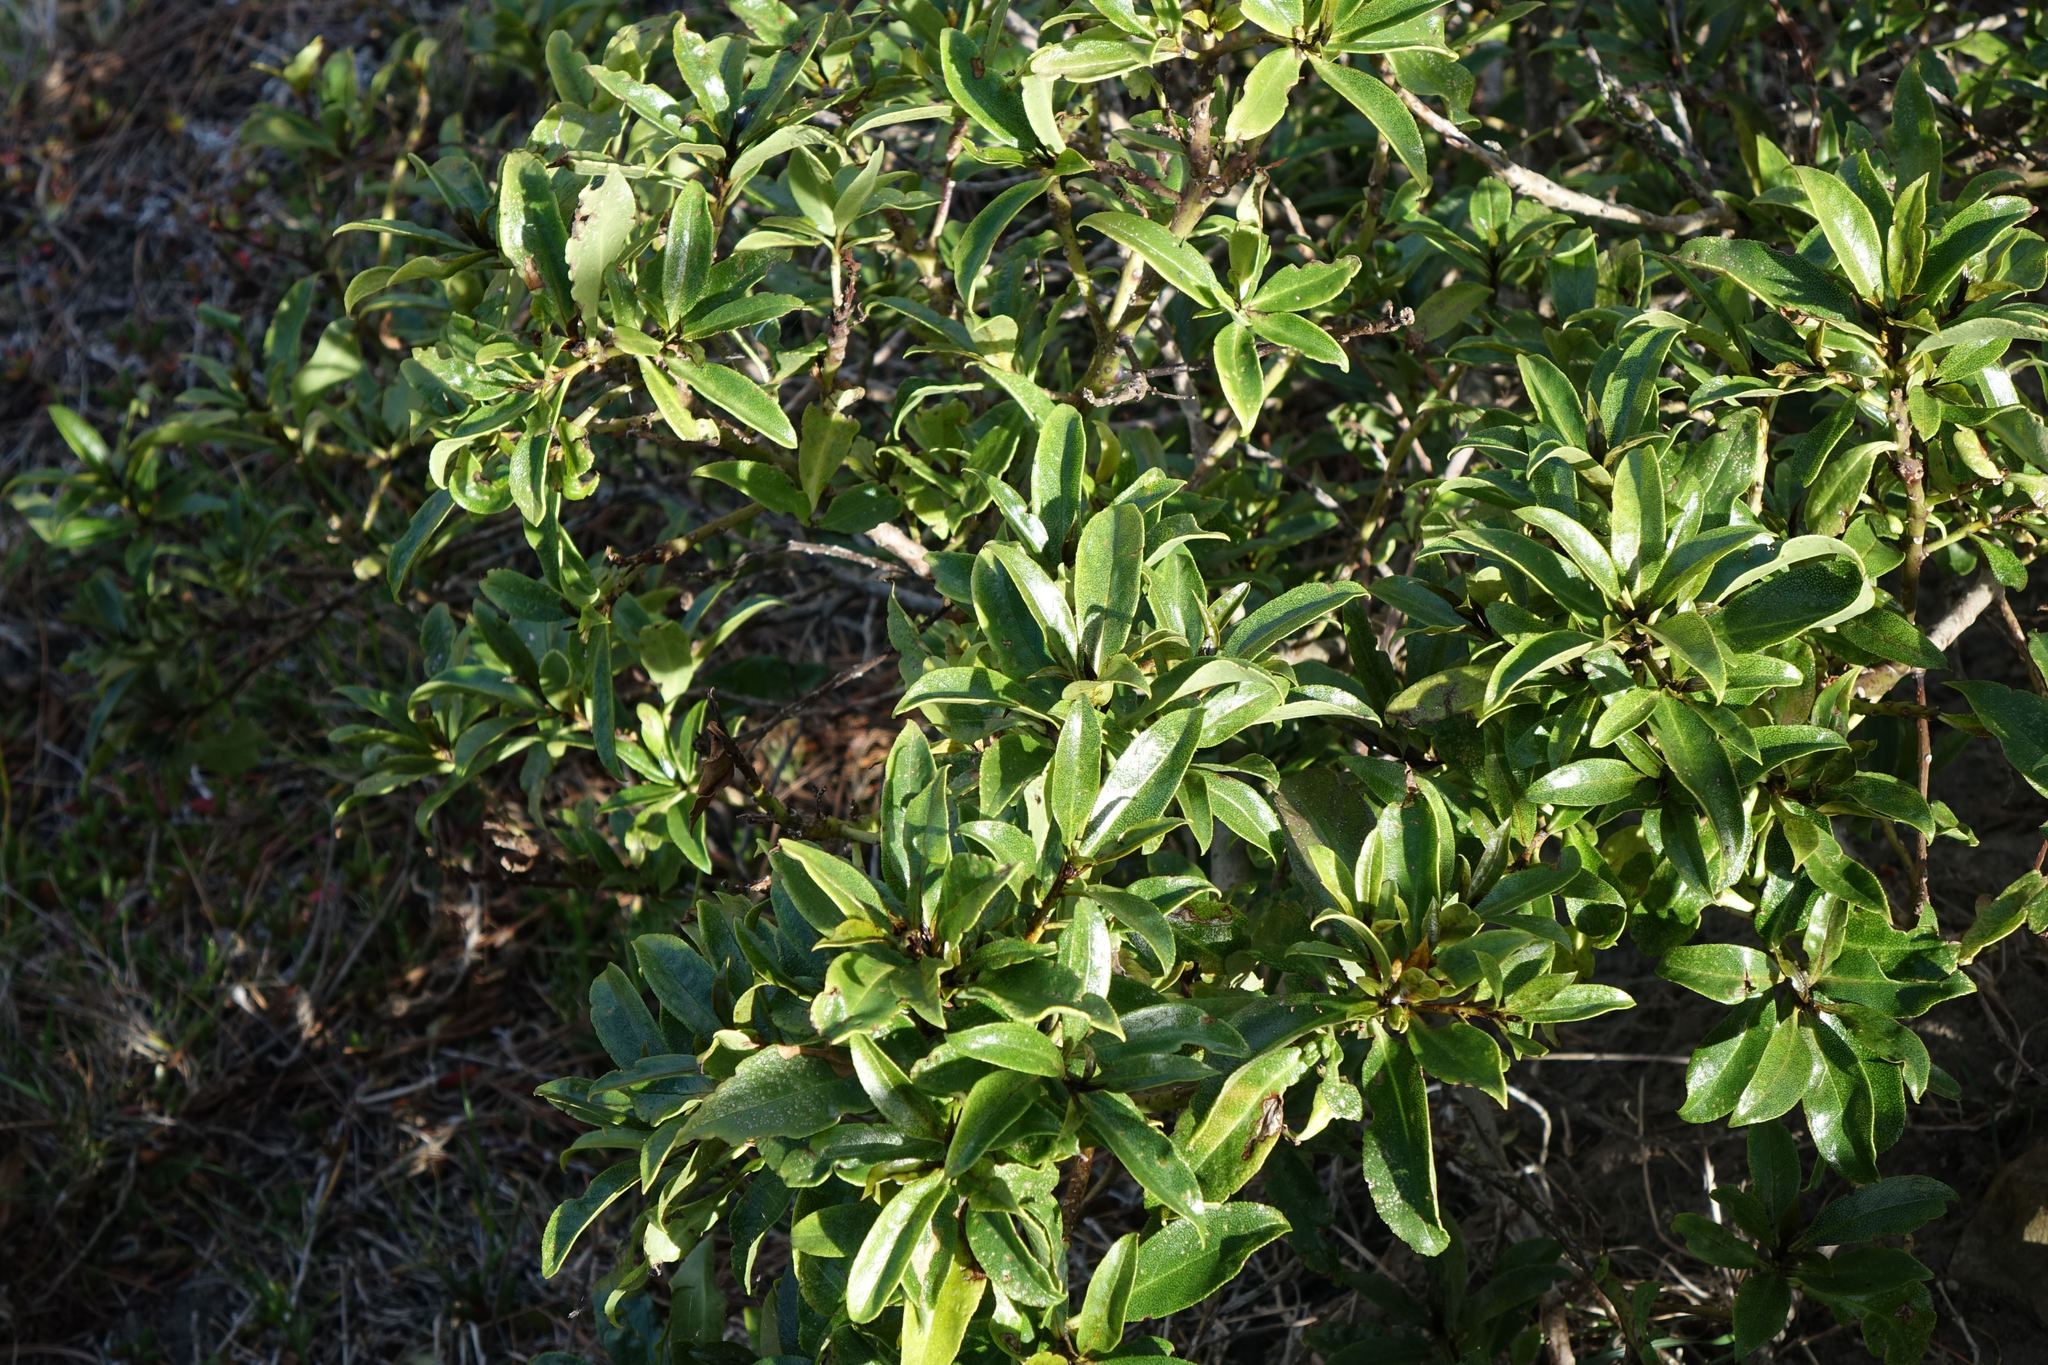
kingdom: Plantae
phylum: Tracheophyta
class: Magnoliopsida
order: Lamiales
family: Scrophulariaceae
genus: Myoporum
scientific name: Myoporum laetum
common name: Ngaio tree
